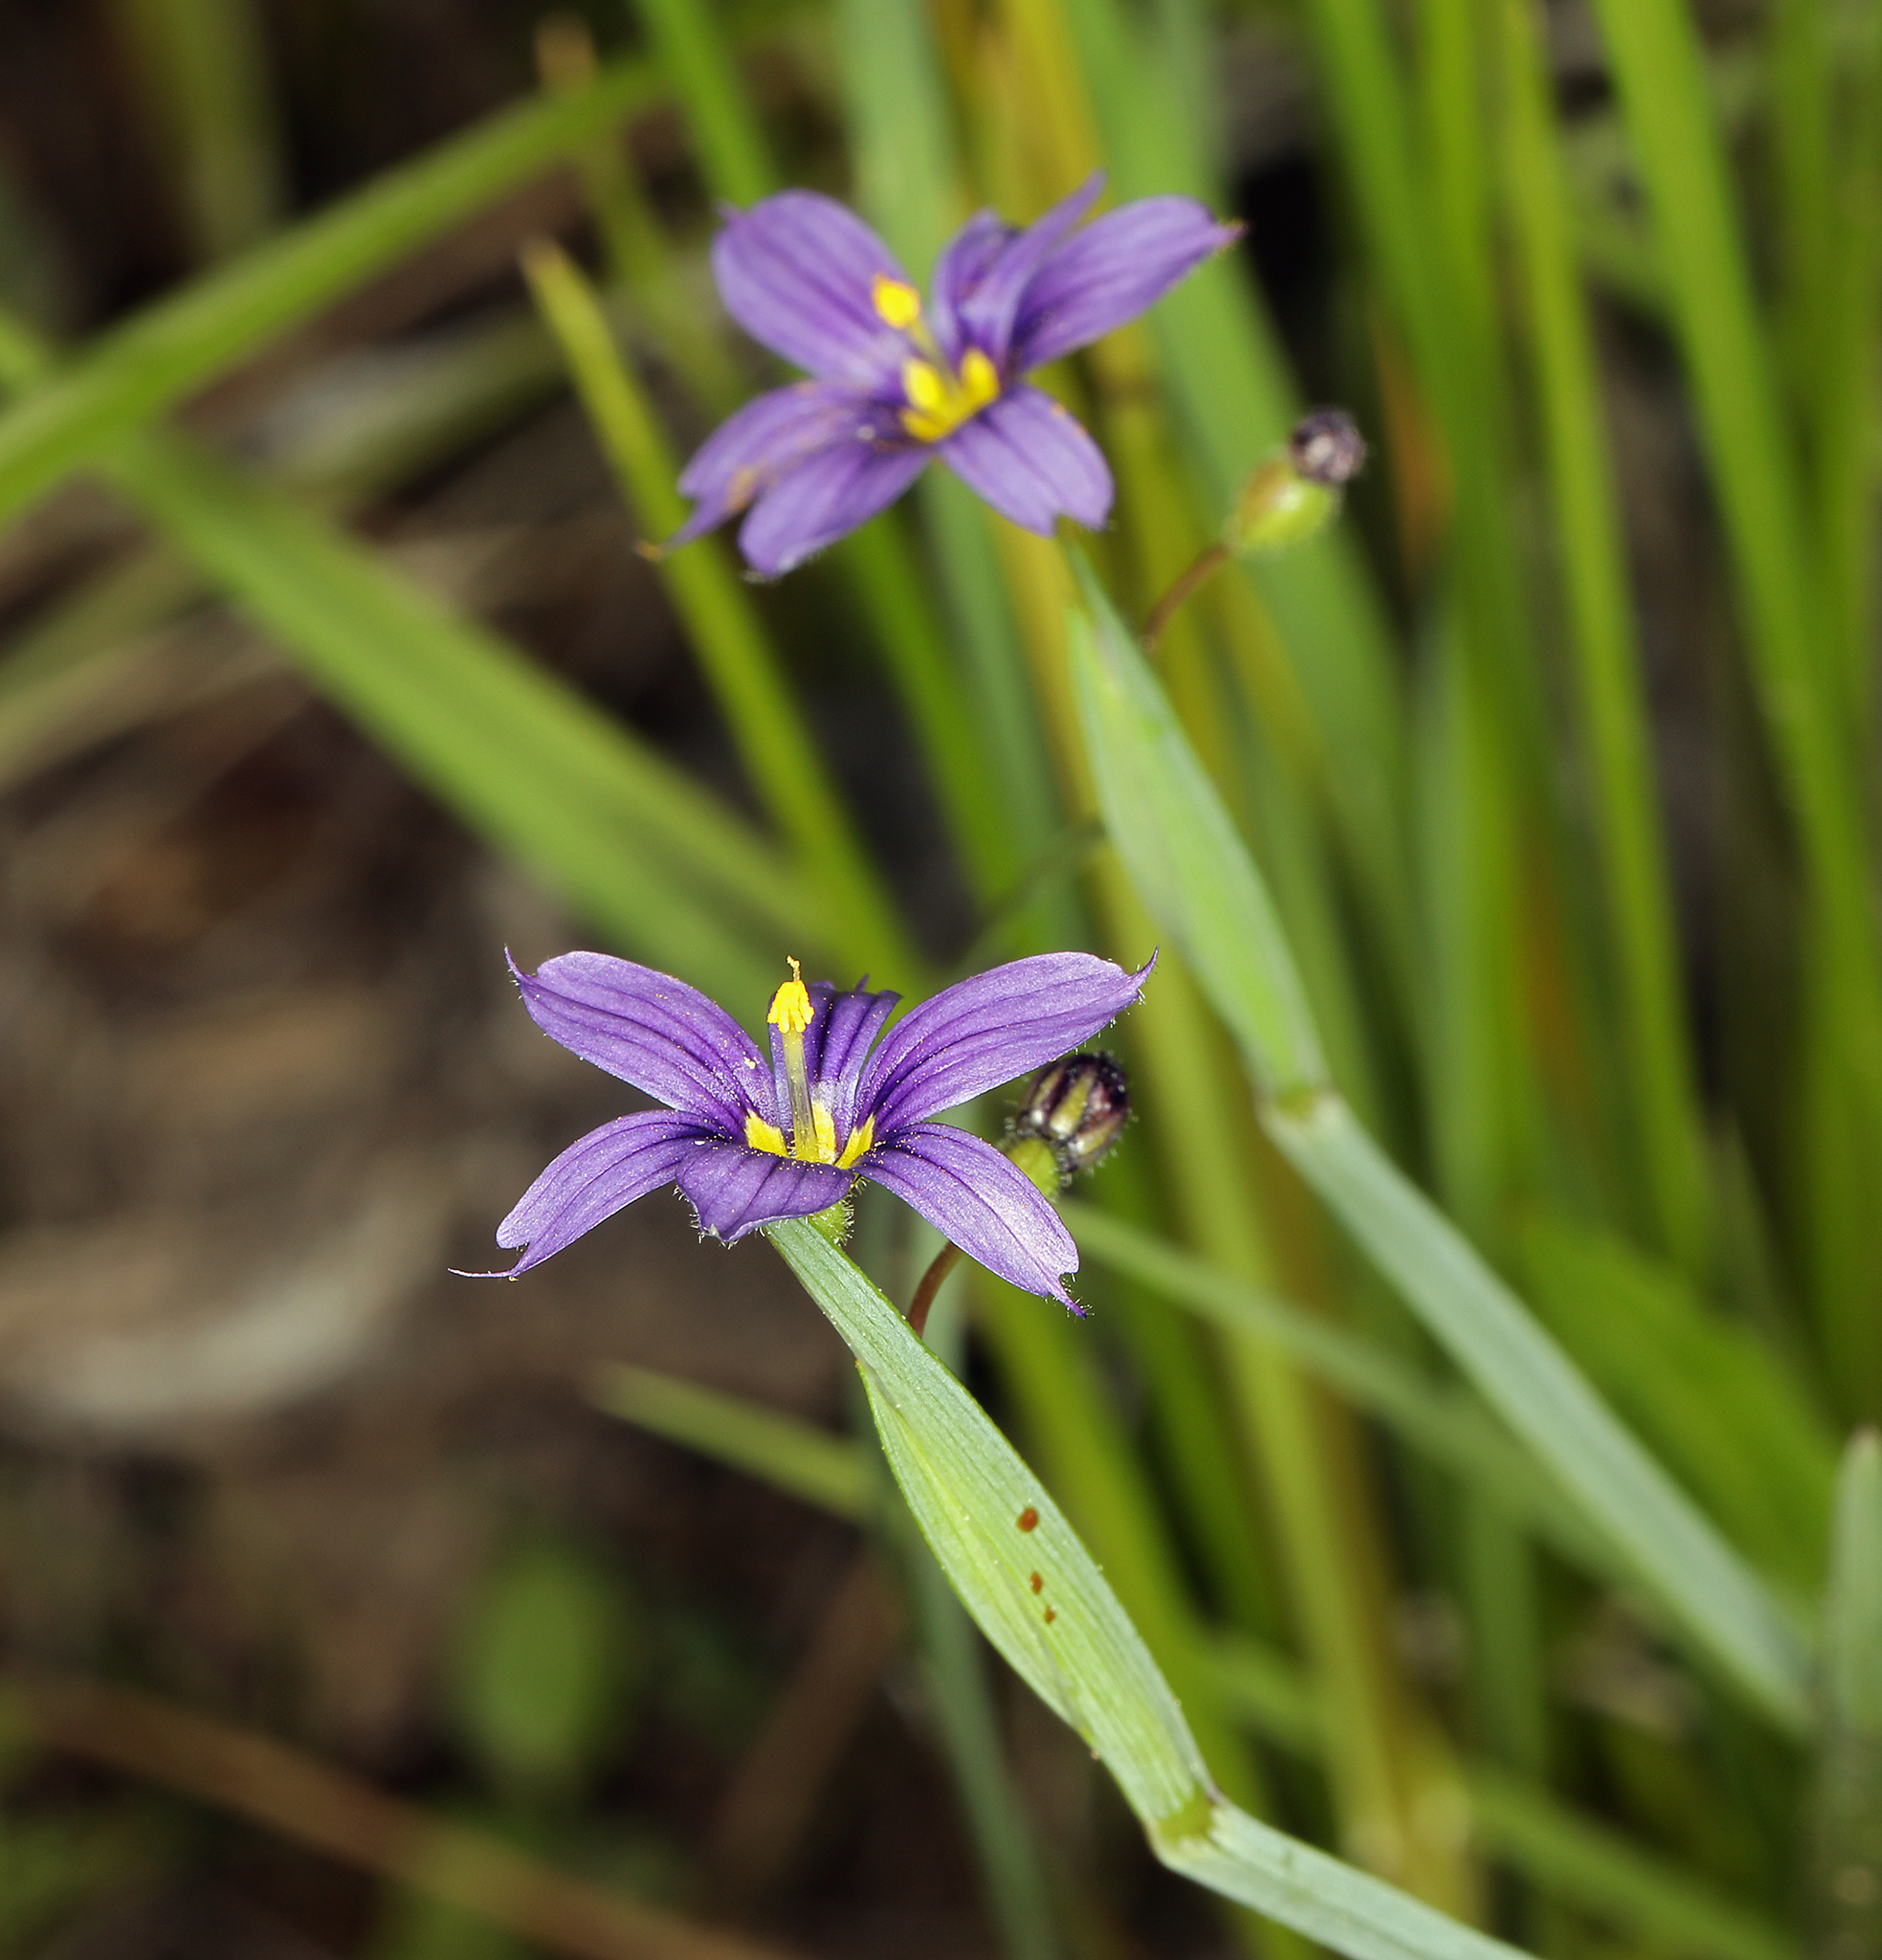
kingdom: Plantae
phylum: Tracheophyta
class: Liliopsida
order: Asparagales
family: Iridaceae
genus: Sisyrinchium
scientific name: Sisyrinchium bellum
